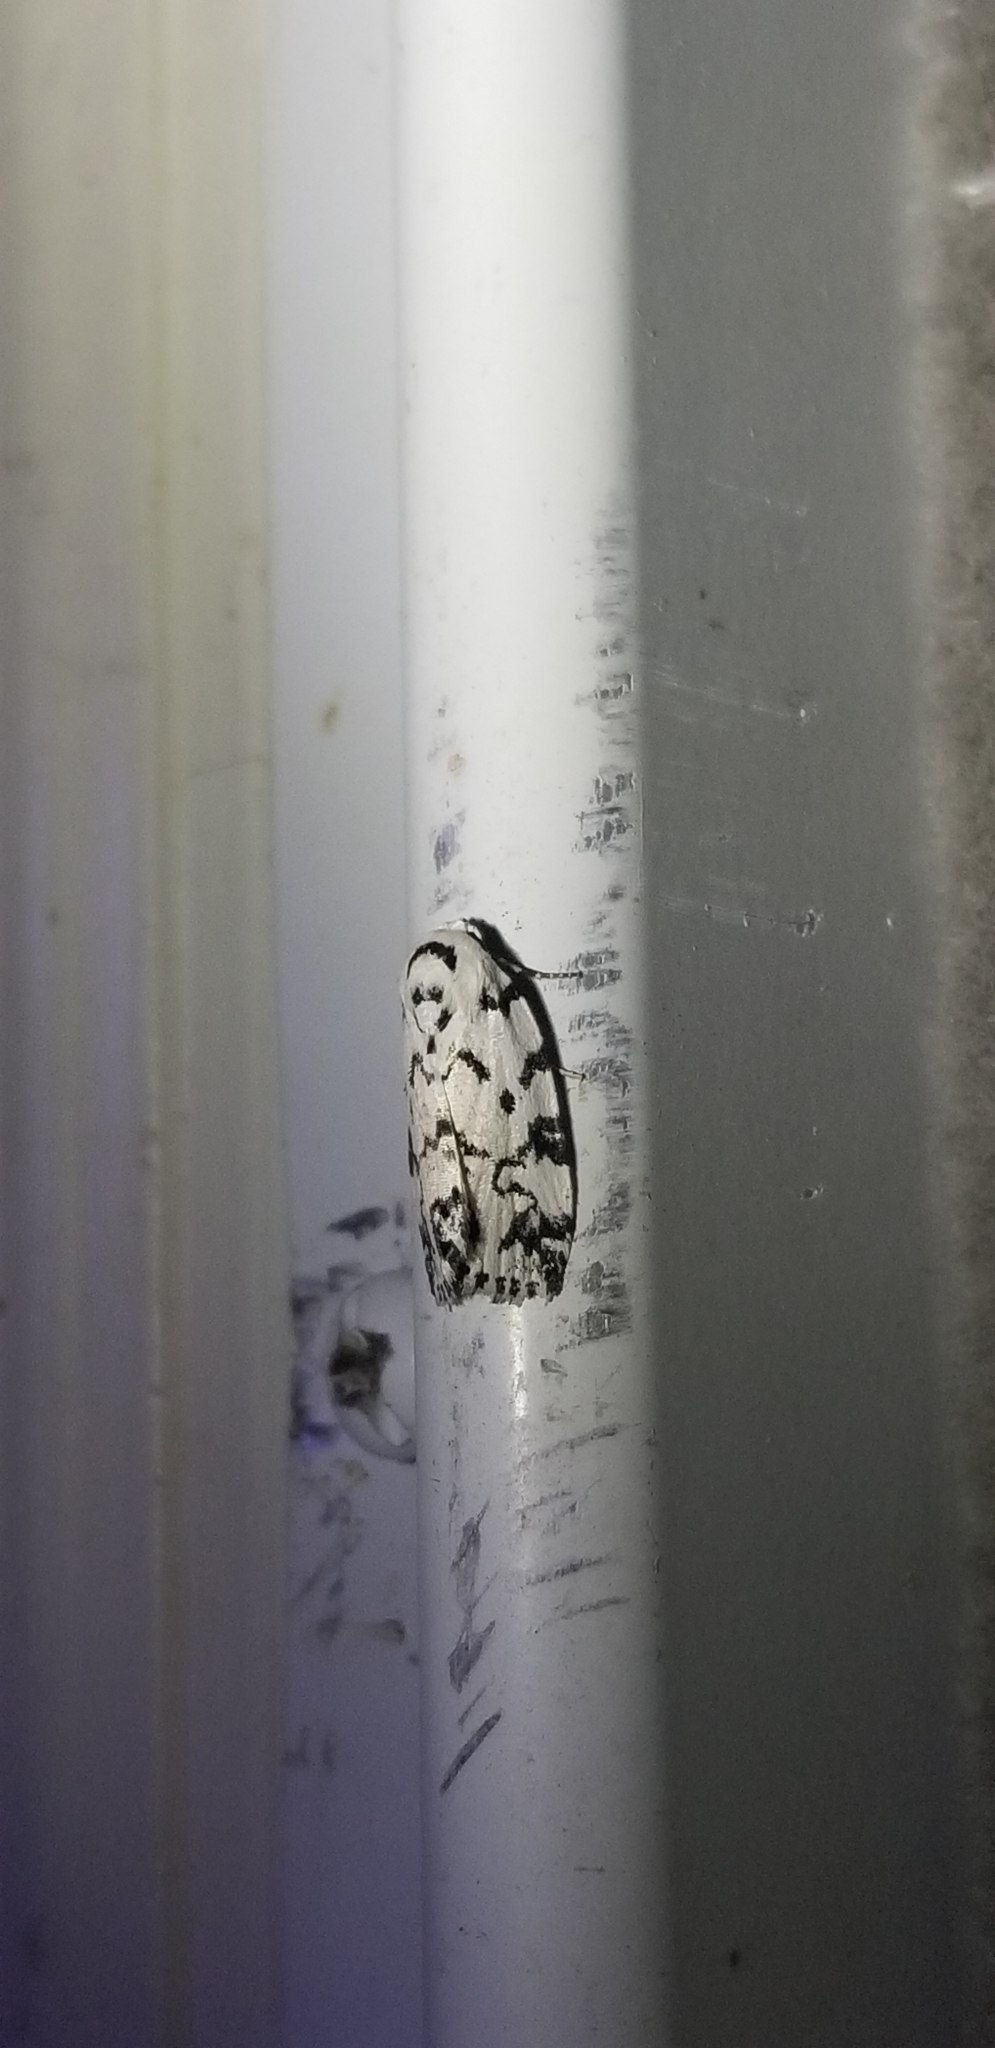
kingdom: Animalia
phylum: Arthropoda
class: Insecta
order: Lepidoptera
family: Noctuidae
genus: Polygrammate
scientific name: Polygrammate hebraeicum
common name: Hebrew moth
